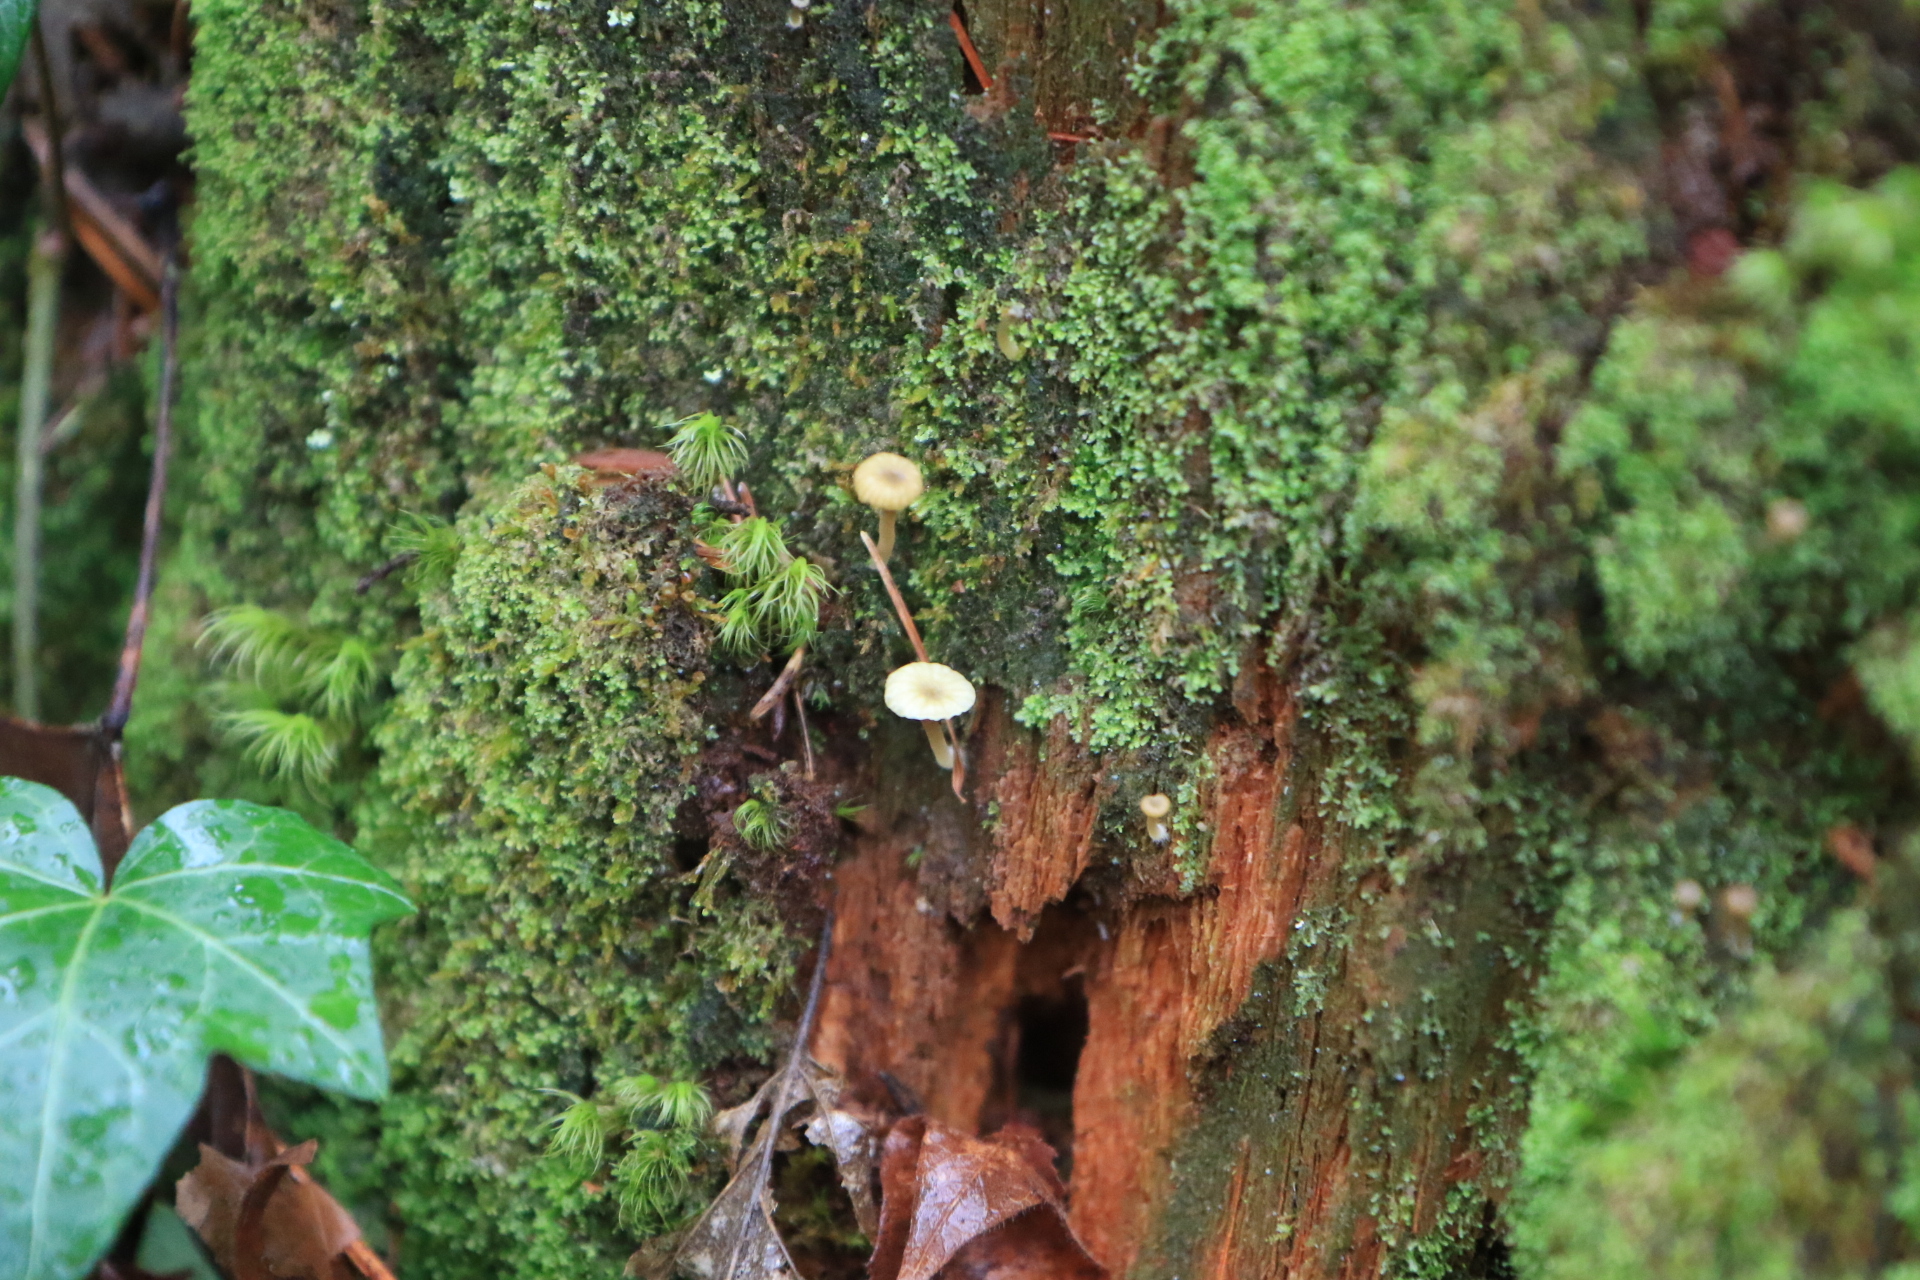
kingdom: Fungi
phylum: Basidiomycota
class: Agaricomycetes
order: Agaricales
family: Hygrophoraceae
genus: Lichenomphalia
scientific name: Lichenomphalia
